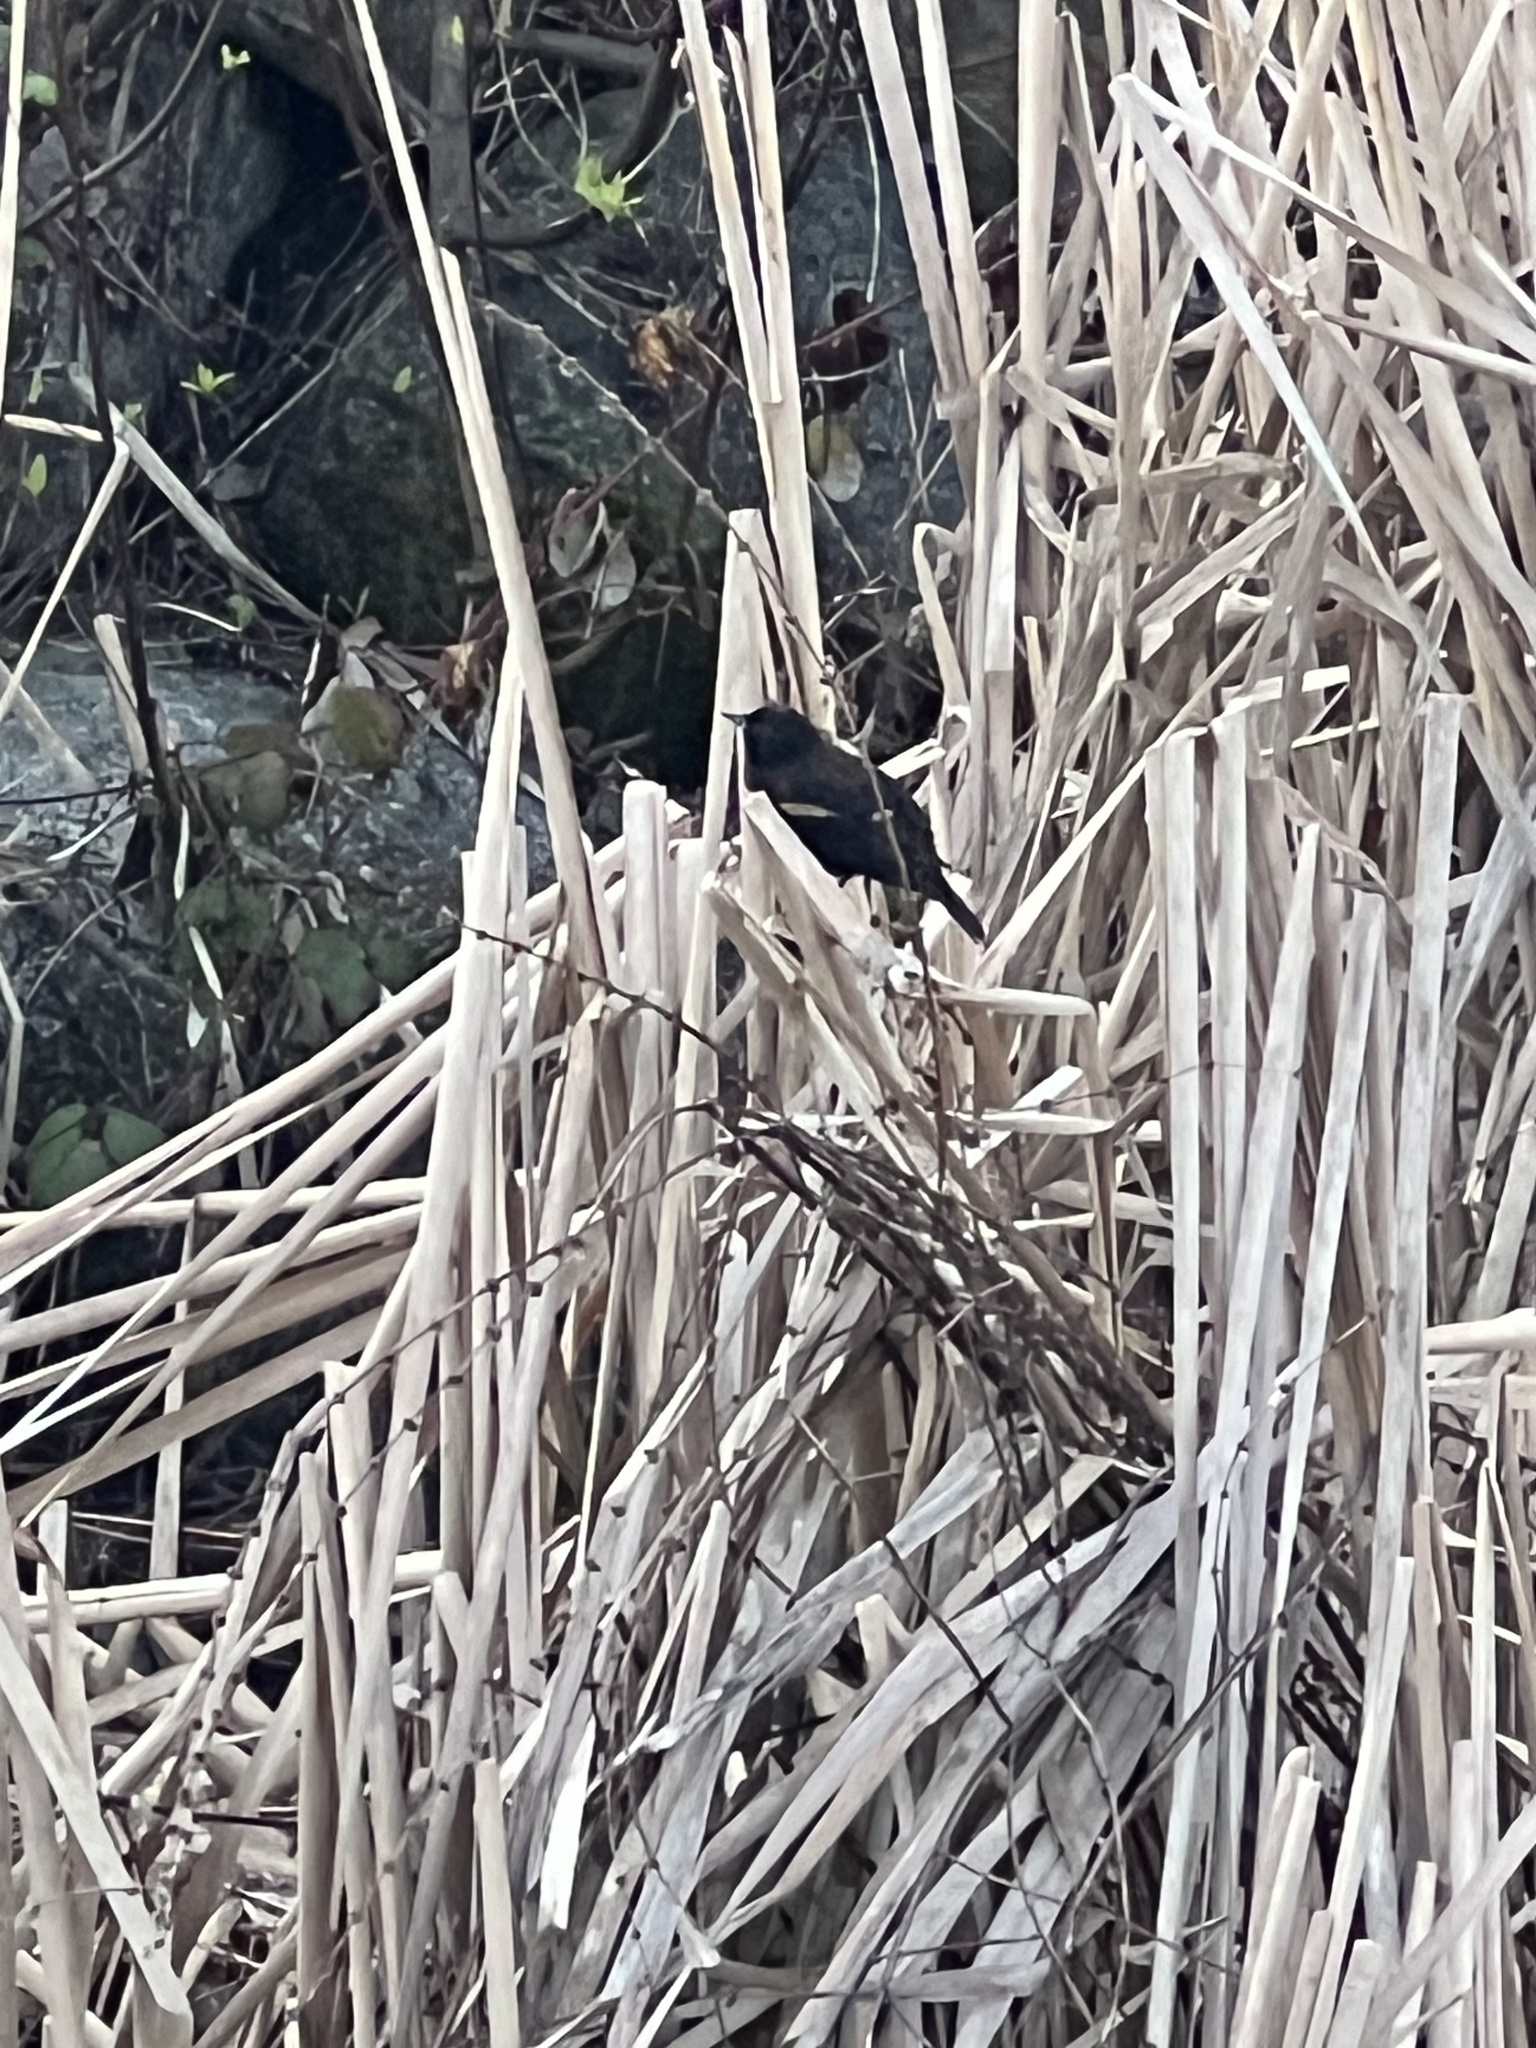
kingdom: Animalia
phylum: Chordata
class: Aves
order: Passeriformes
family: Icteridae
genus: Agelaius
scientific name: Agelaius phoeniceus
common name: Red-winged blackbird
